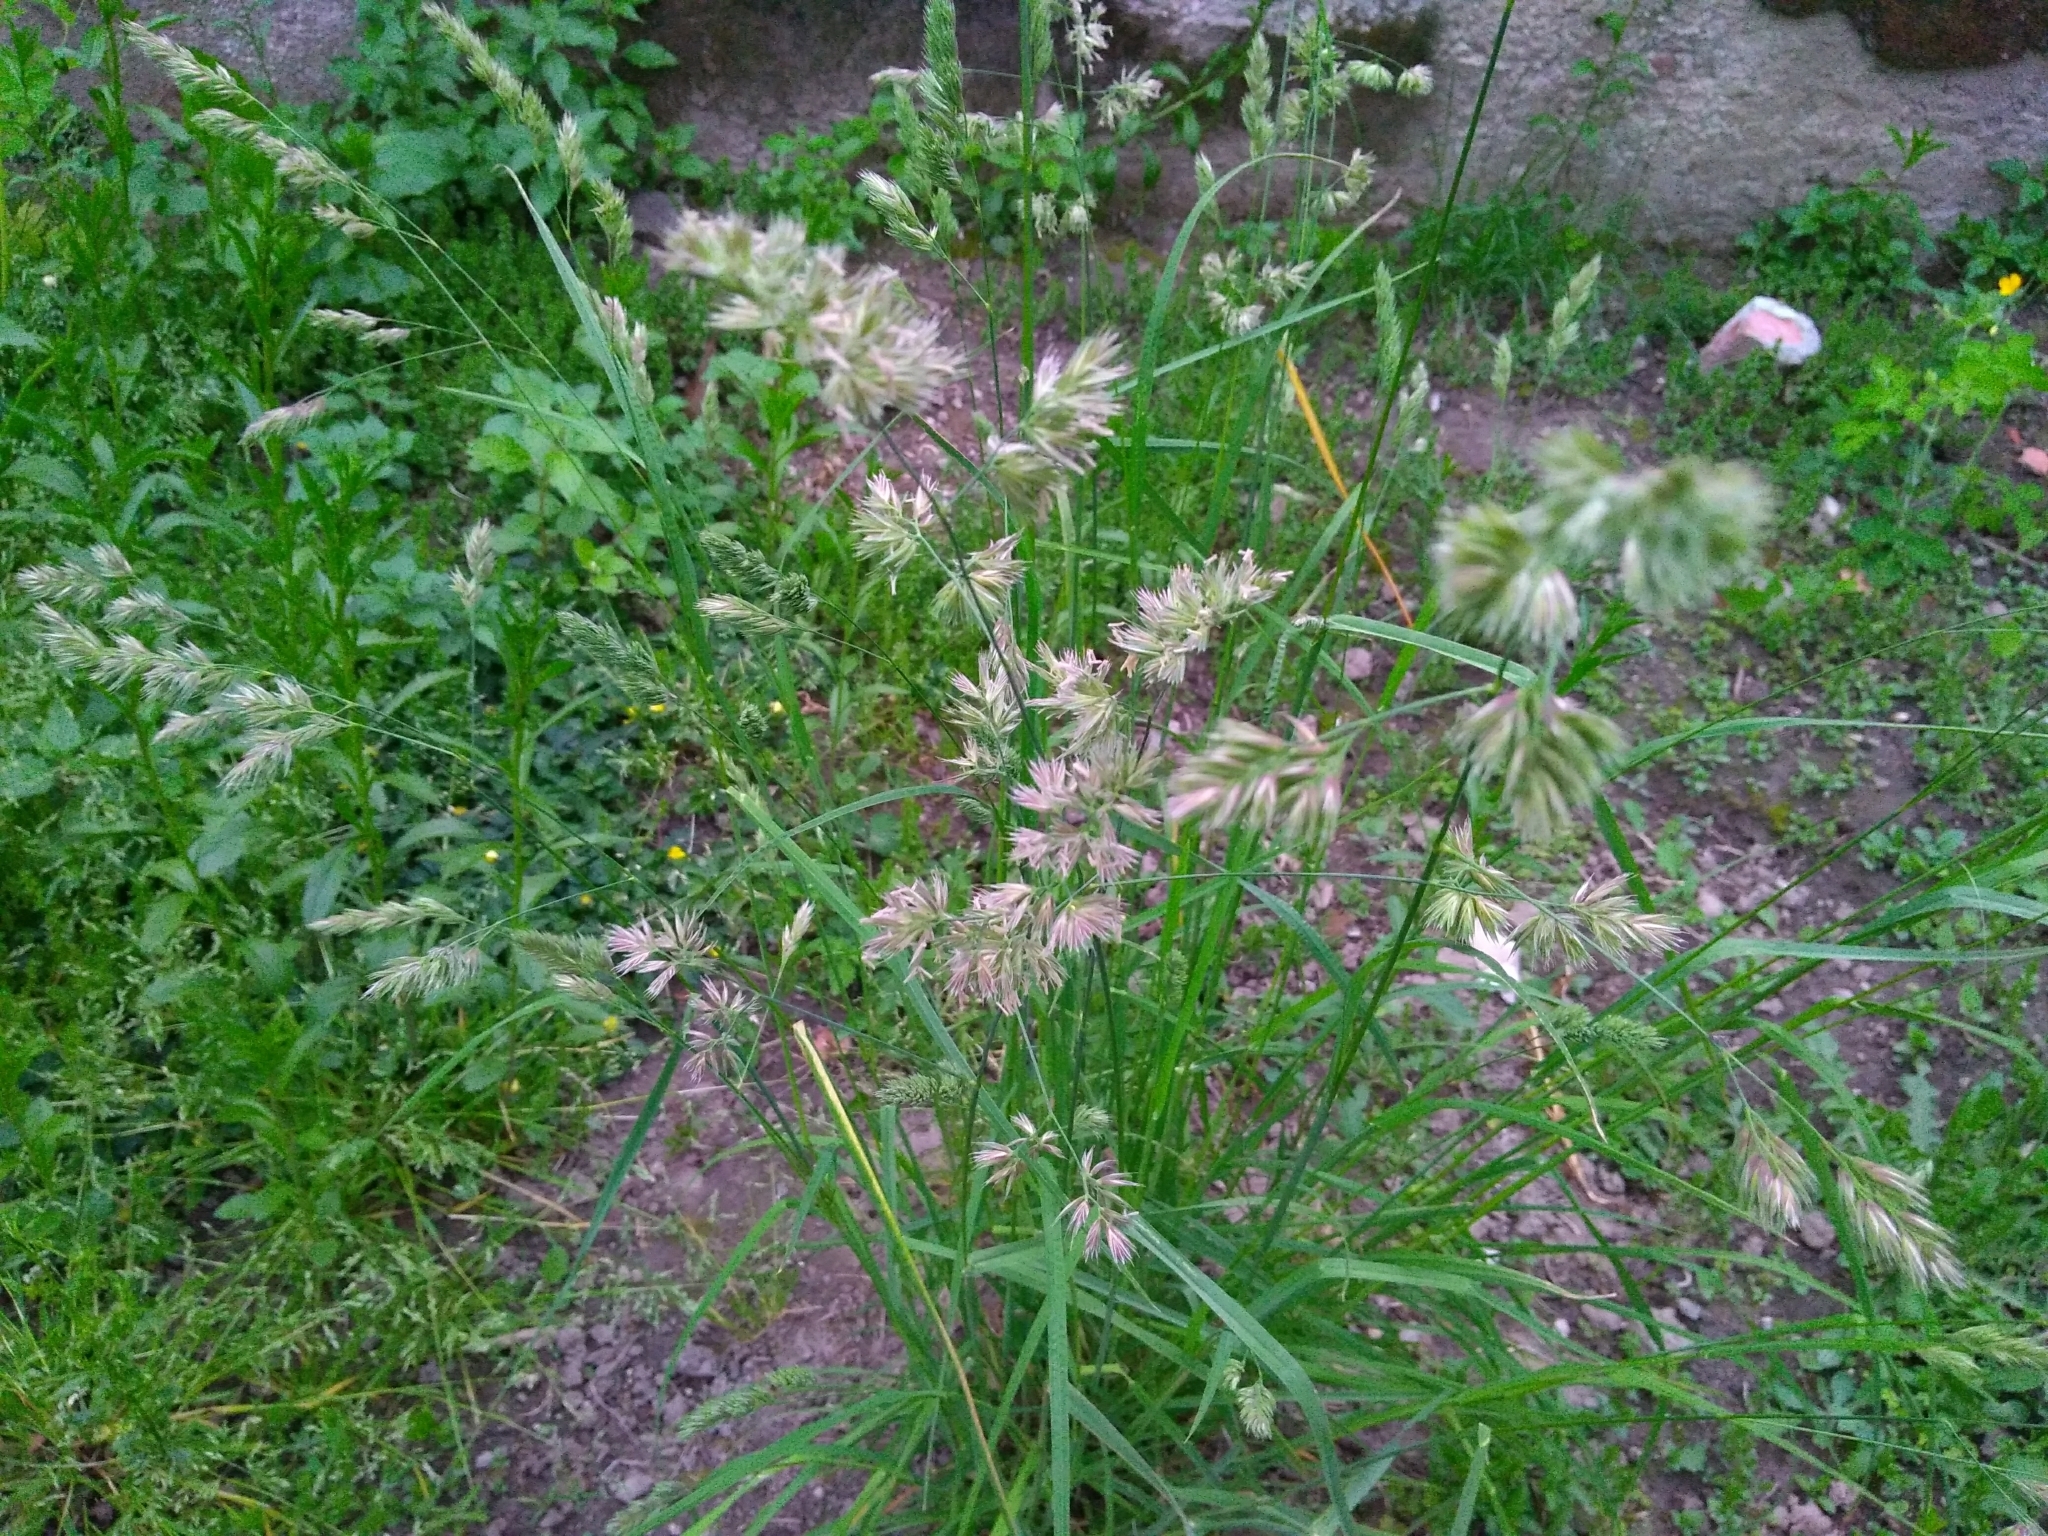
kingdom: Plantae
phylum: Tracheophyta
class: Liliopsida
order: Poales
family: Poaceae
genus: Dactylis
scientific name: Dactylis glomerata
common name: Orchardgrass
